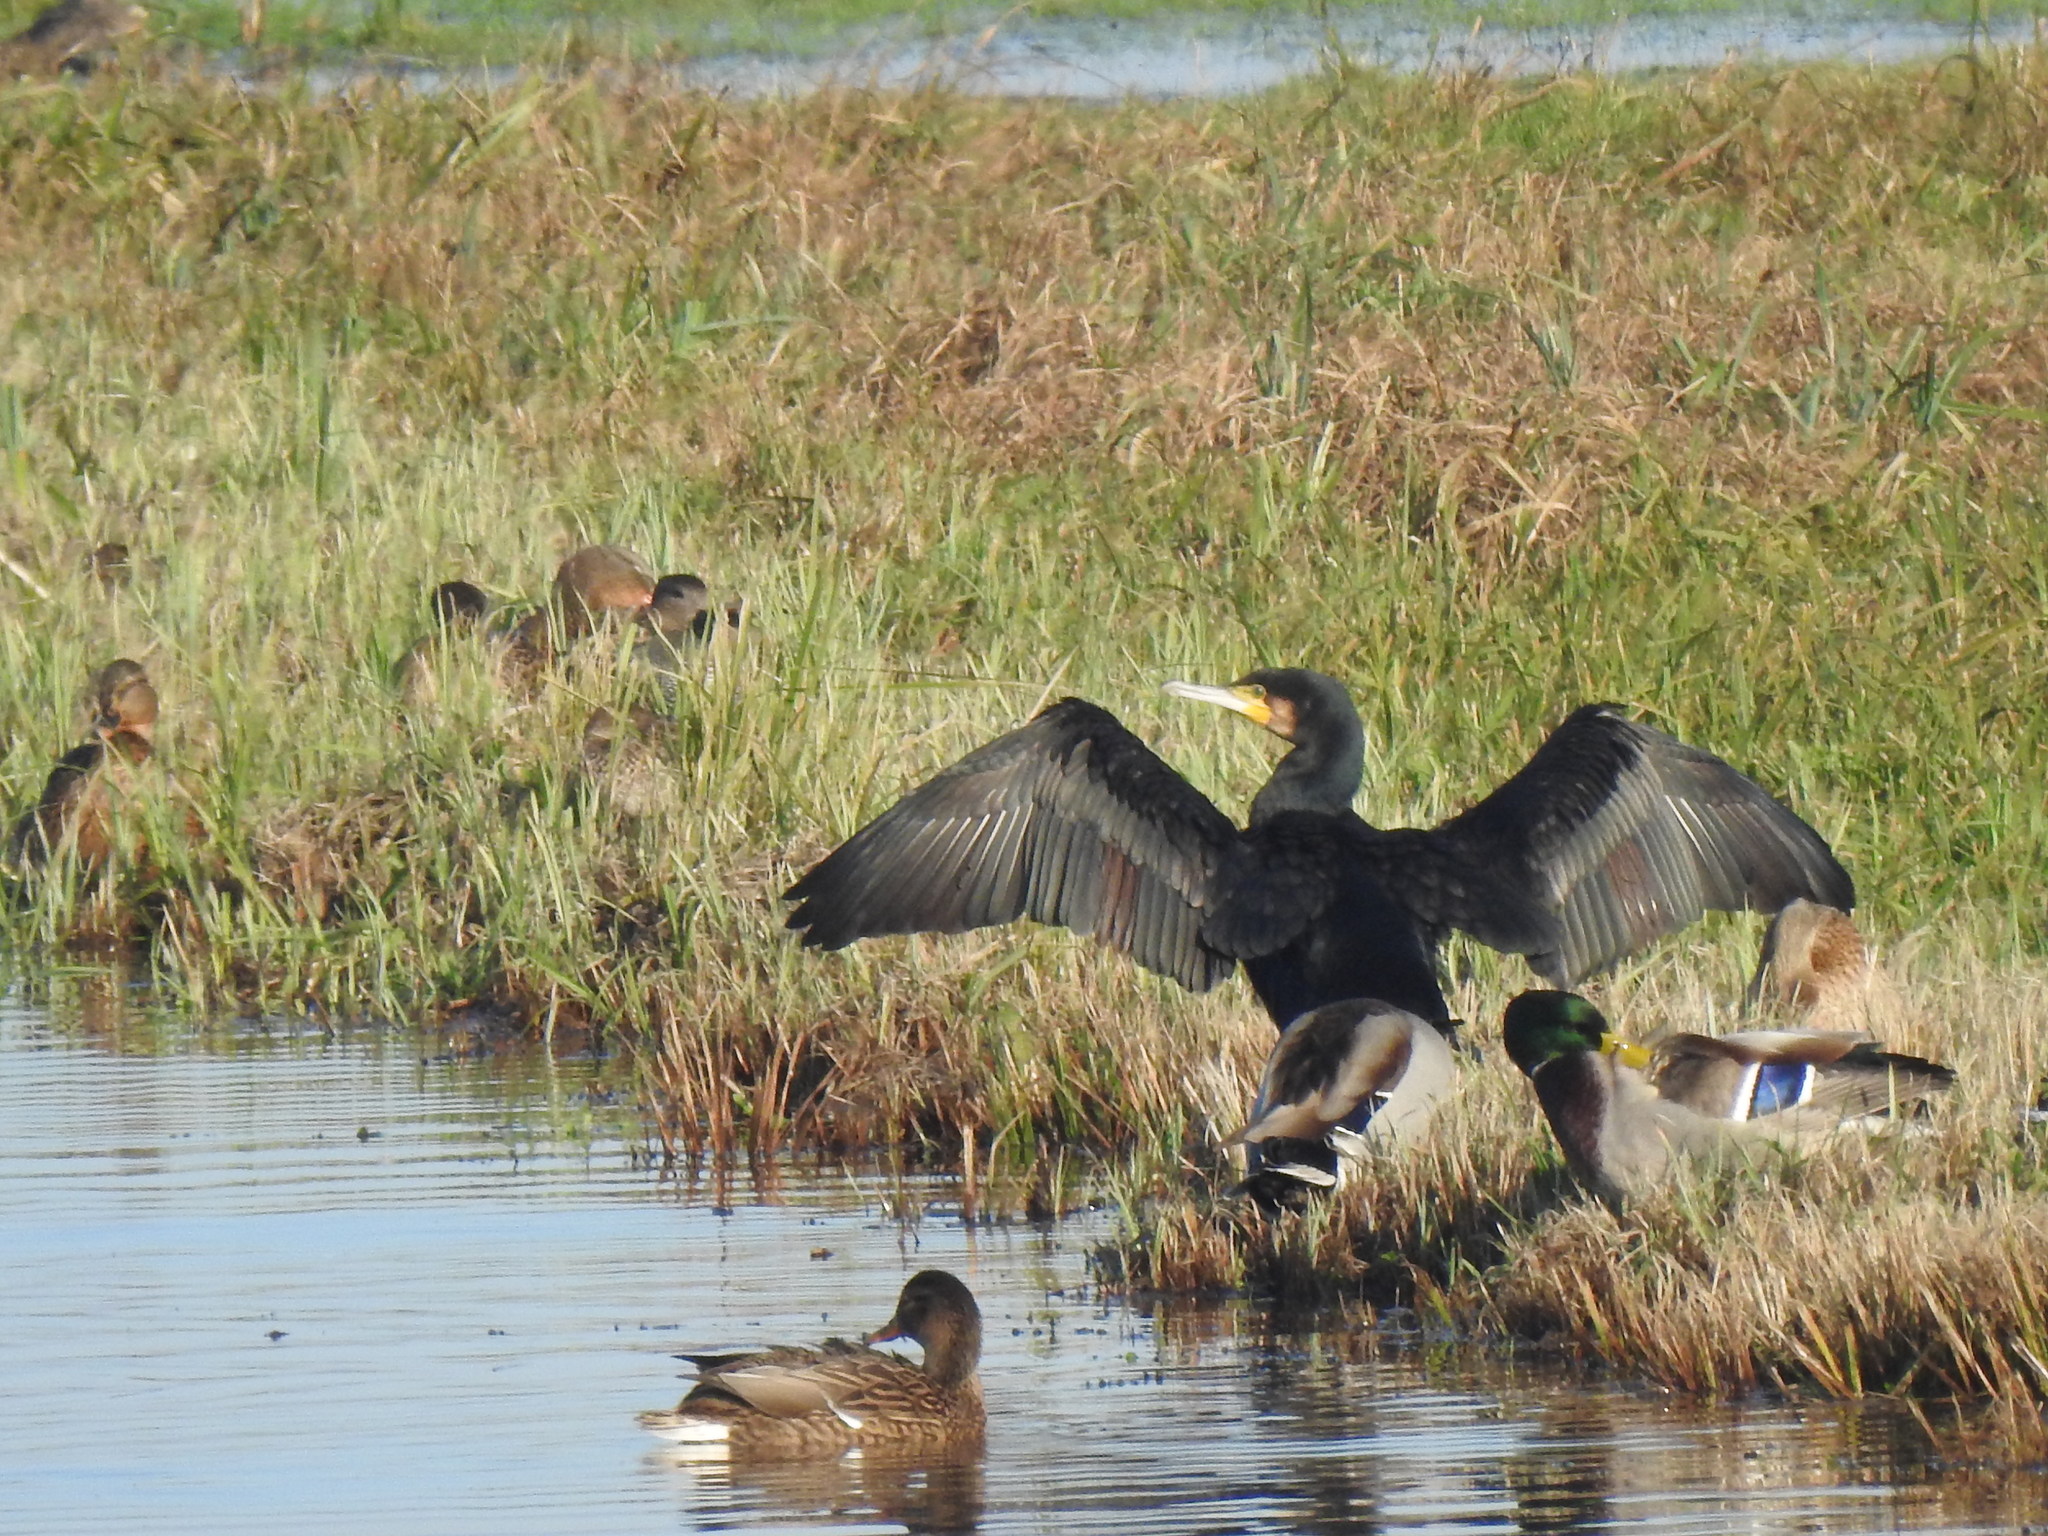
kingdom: Animalia
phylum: Chordata
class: Aves
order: Suliformes
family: Phalacrocoracidae
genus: Phalacrocorax
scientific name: Phalacrocorax carbo
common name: Great cormorant
